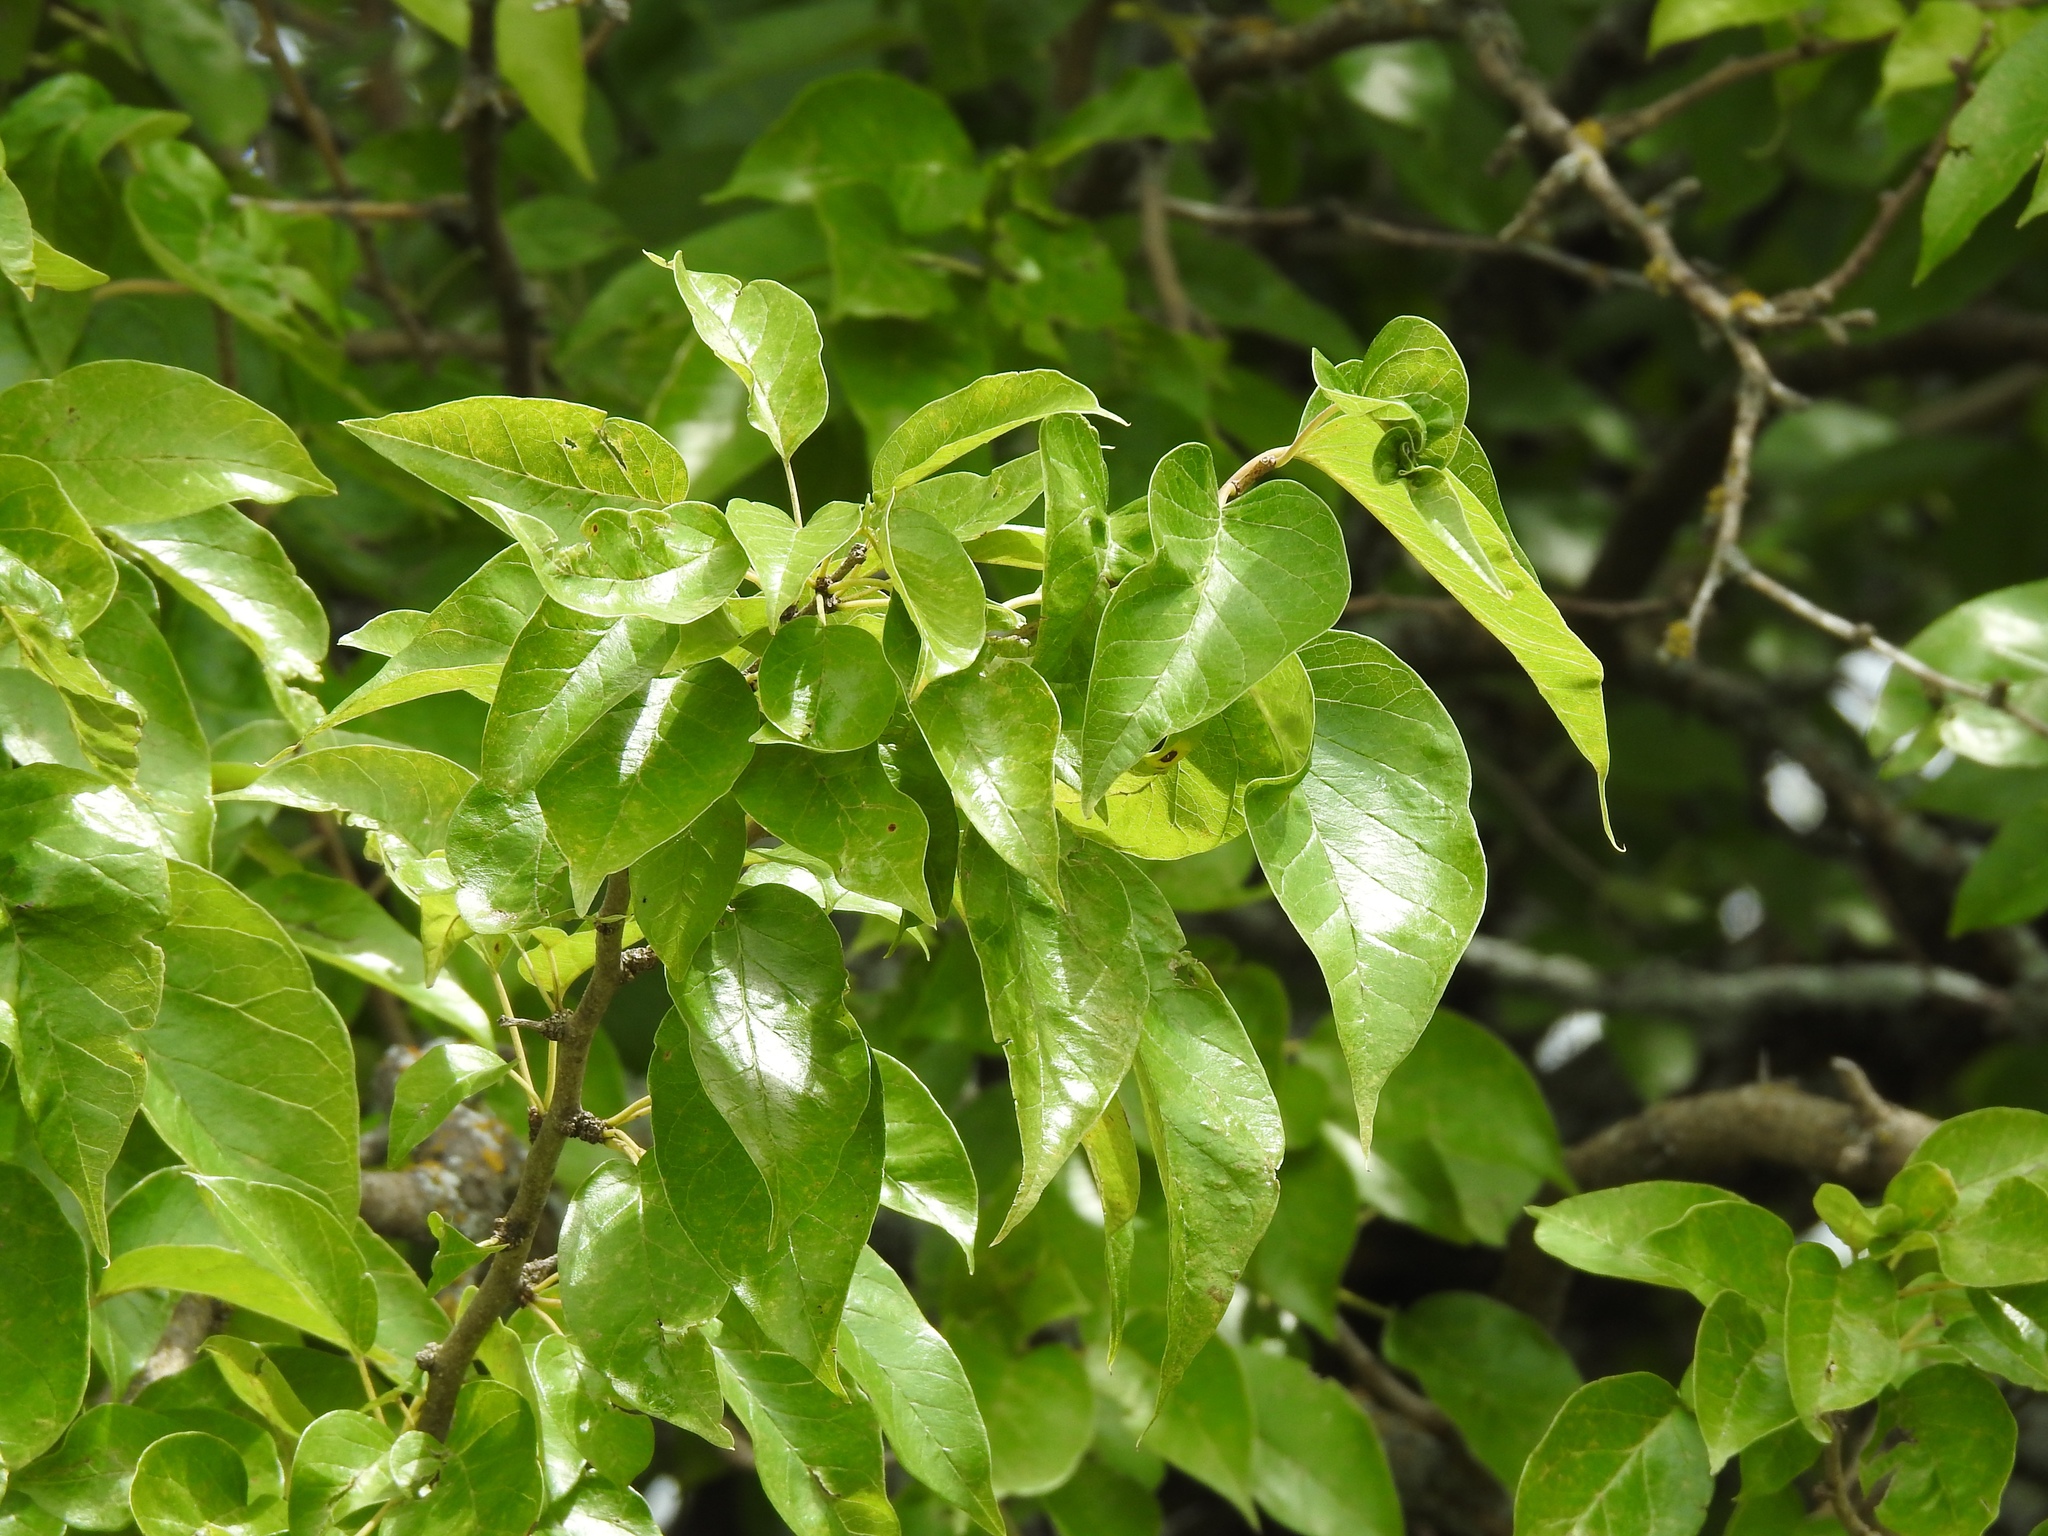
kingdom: Plantae
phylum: Tracheophyta
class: Magnoliopsida
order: Rosales
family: Moraceae
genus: Maclura
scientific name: Maclura pomifera
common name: Osage-orange
